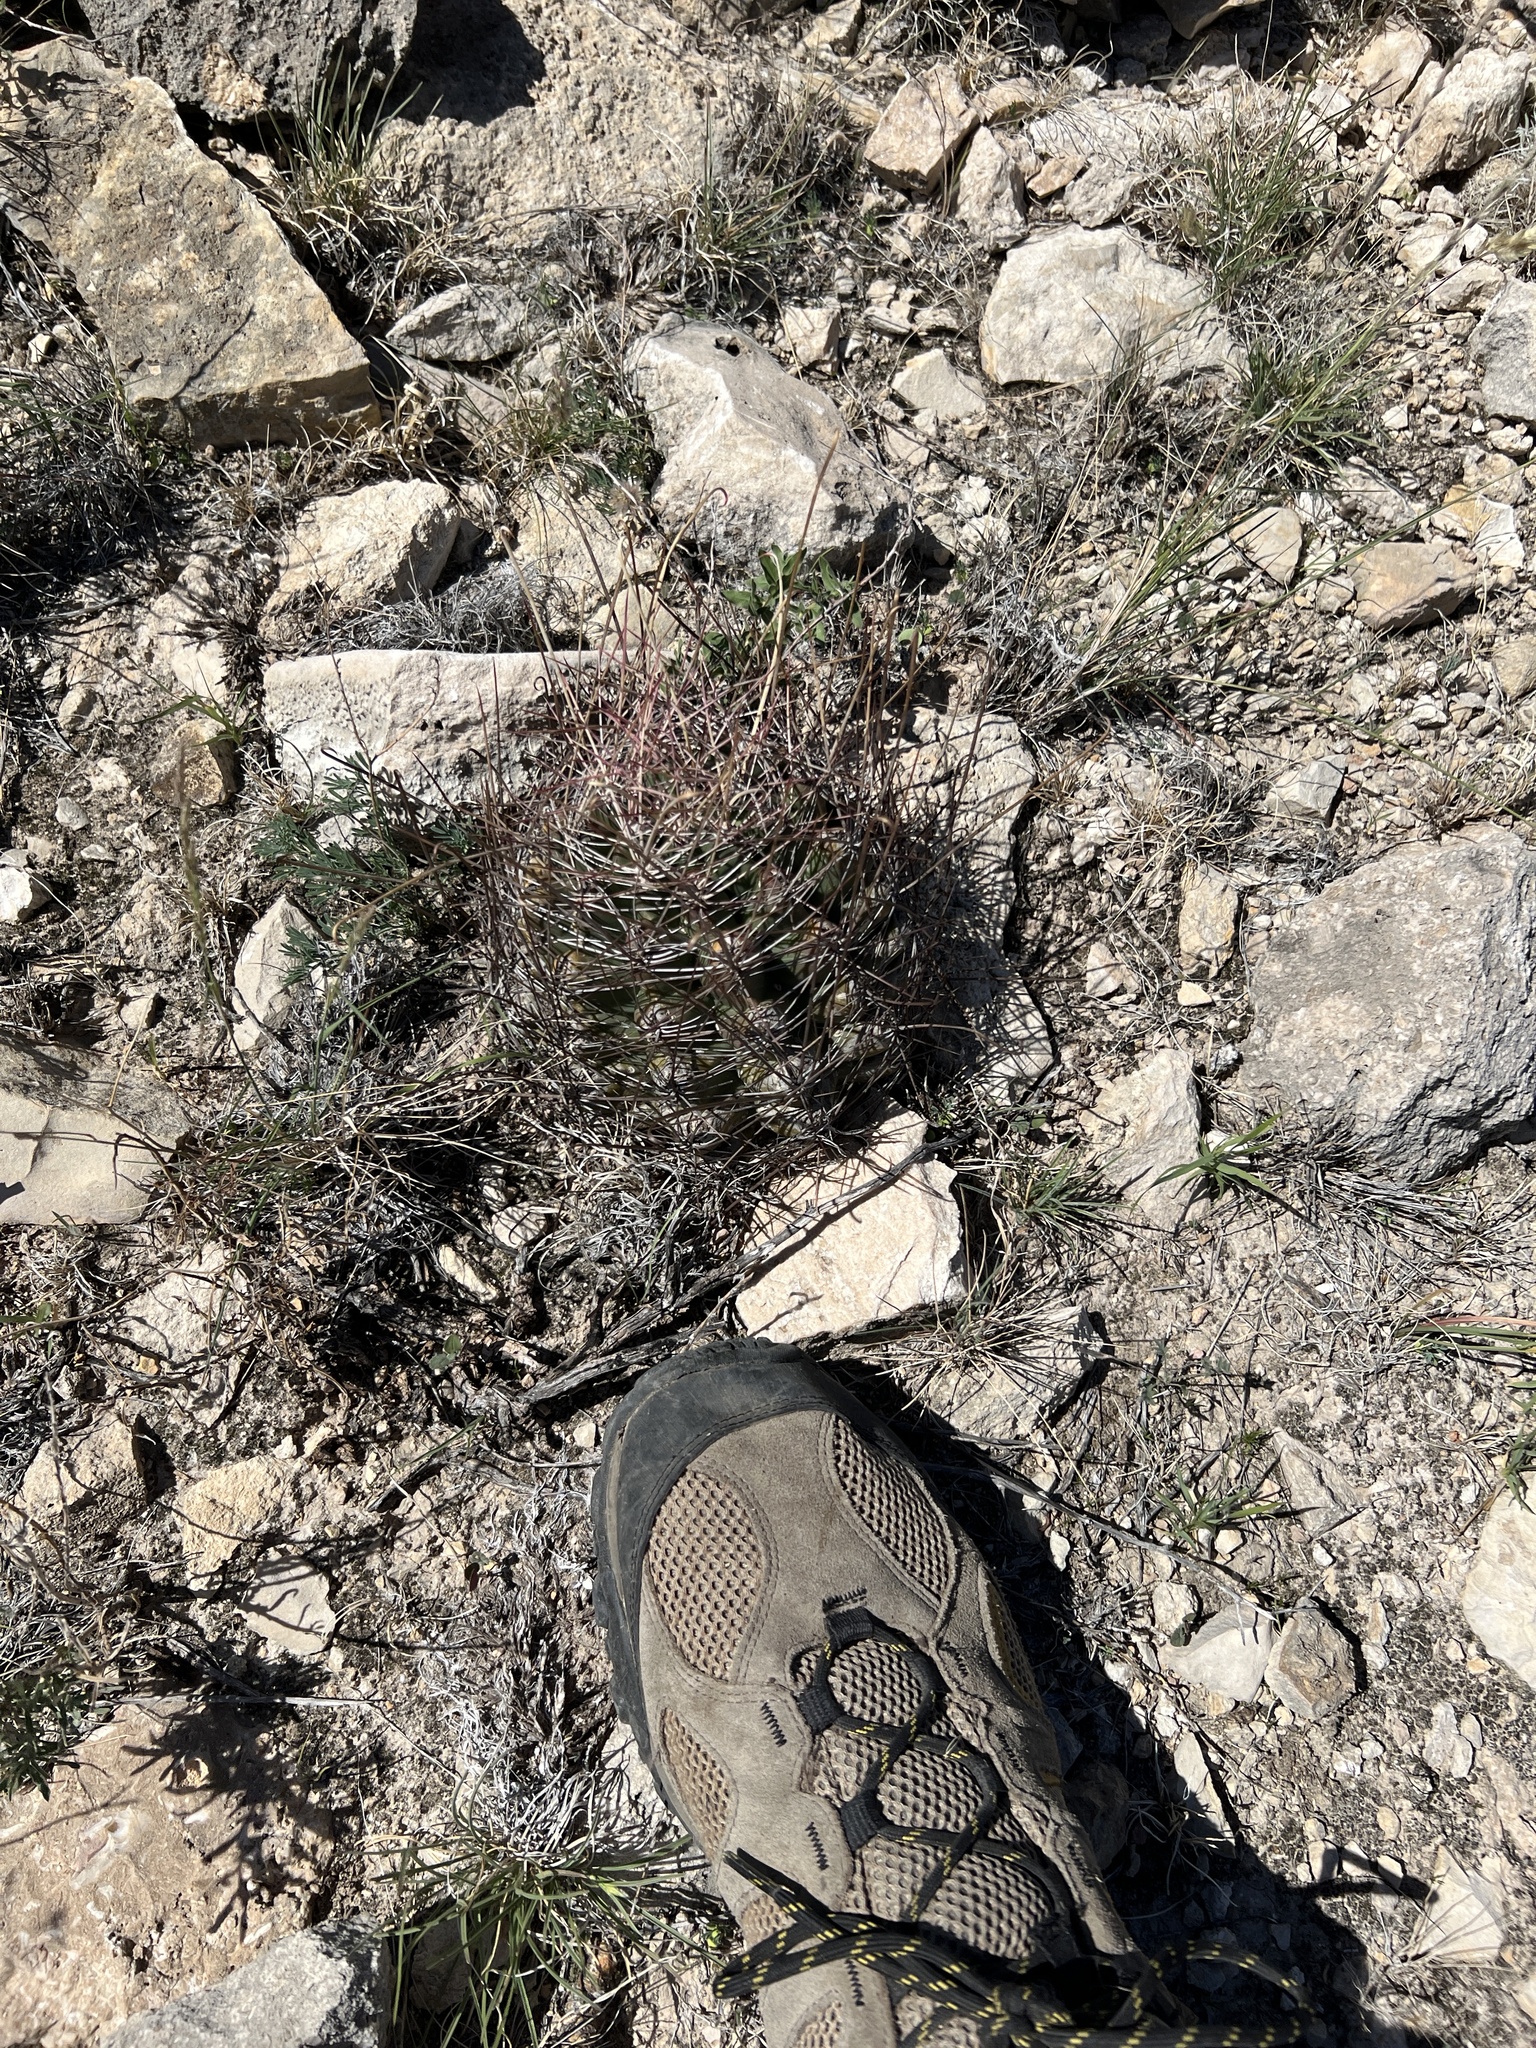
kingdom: Plantae
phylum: Tracheophyta
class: Magnoliopsida
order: Caryophyllales
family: Cactaceae
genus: Bisnaga
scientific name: Bisnaga hamatacantha
